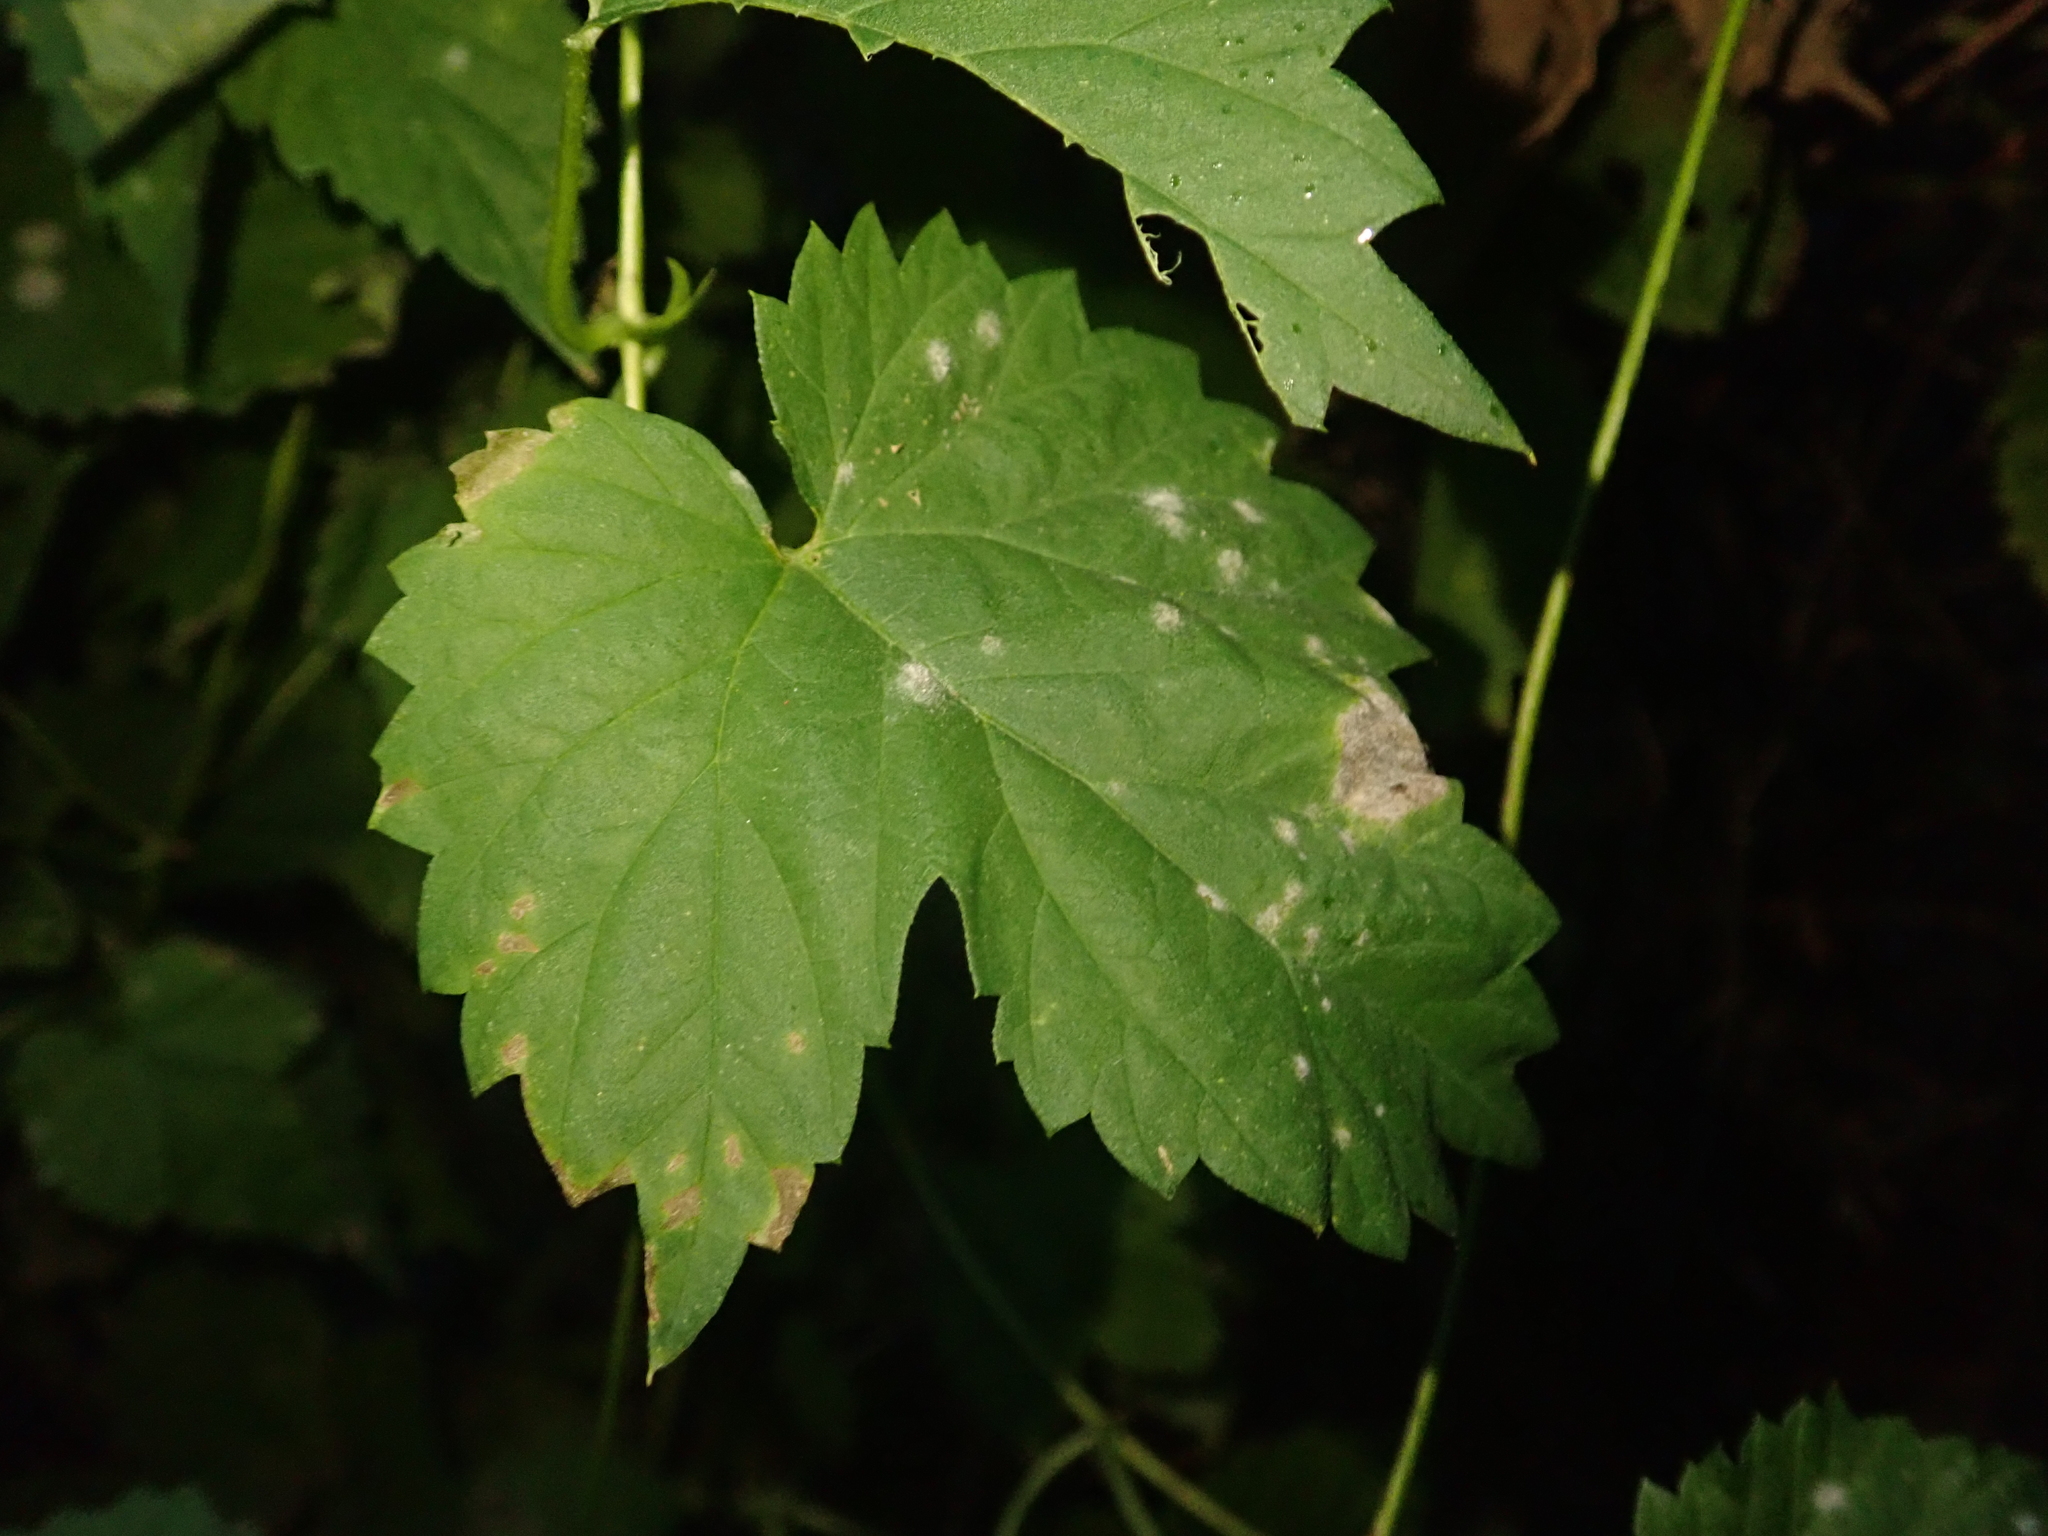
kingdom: Fungi
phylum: Ascomycota
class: Leotiomycetes
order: Helotiales
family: Erysiphaceae
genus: Podosphaera
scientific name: Podosphaera macularis
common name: Powdery mildew
